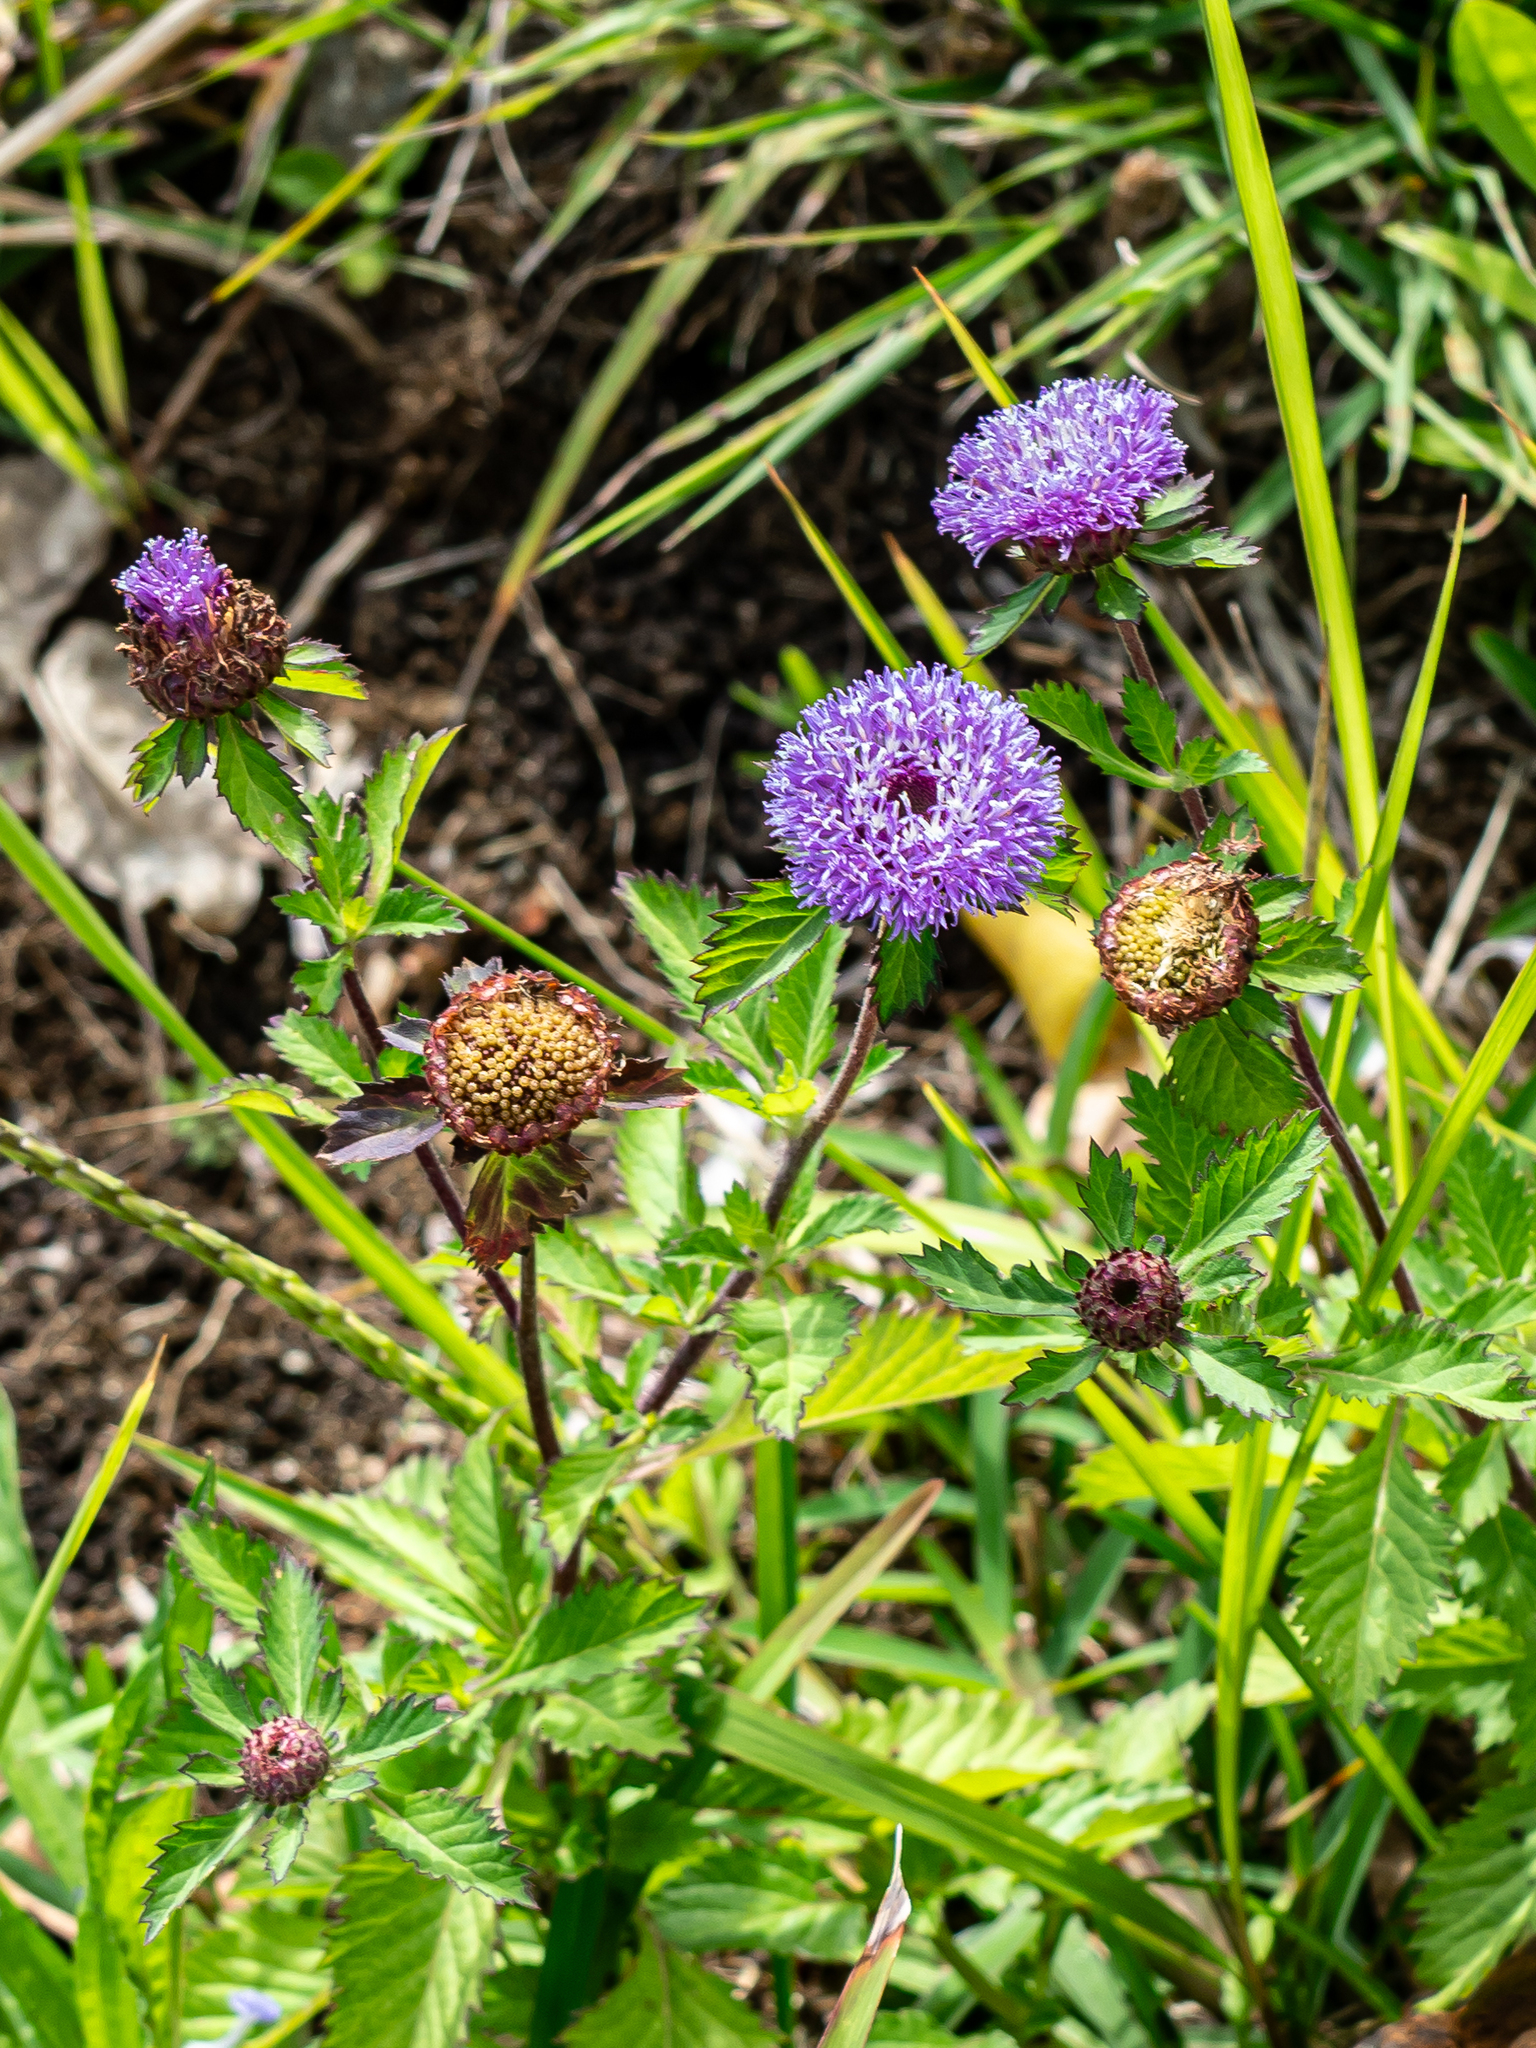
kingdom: Plantae
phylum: Tracheophyta
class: Magnoliopsida
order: Asterales
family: Asteraceae
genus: Centratherum
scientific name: Centratherum punctatum
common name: Larkdaisy
